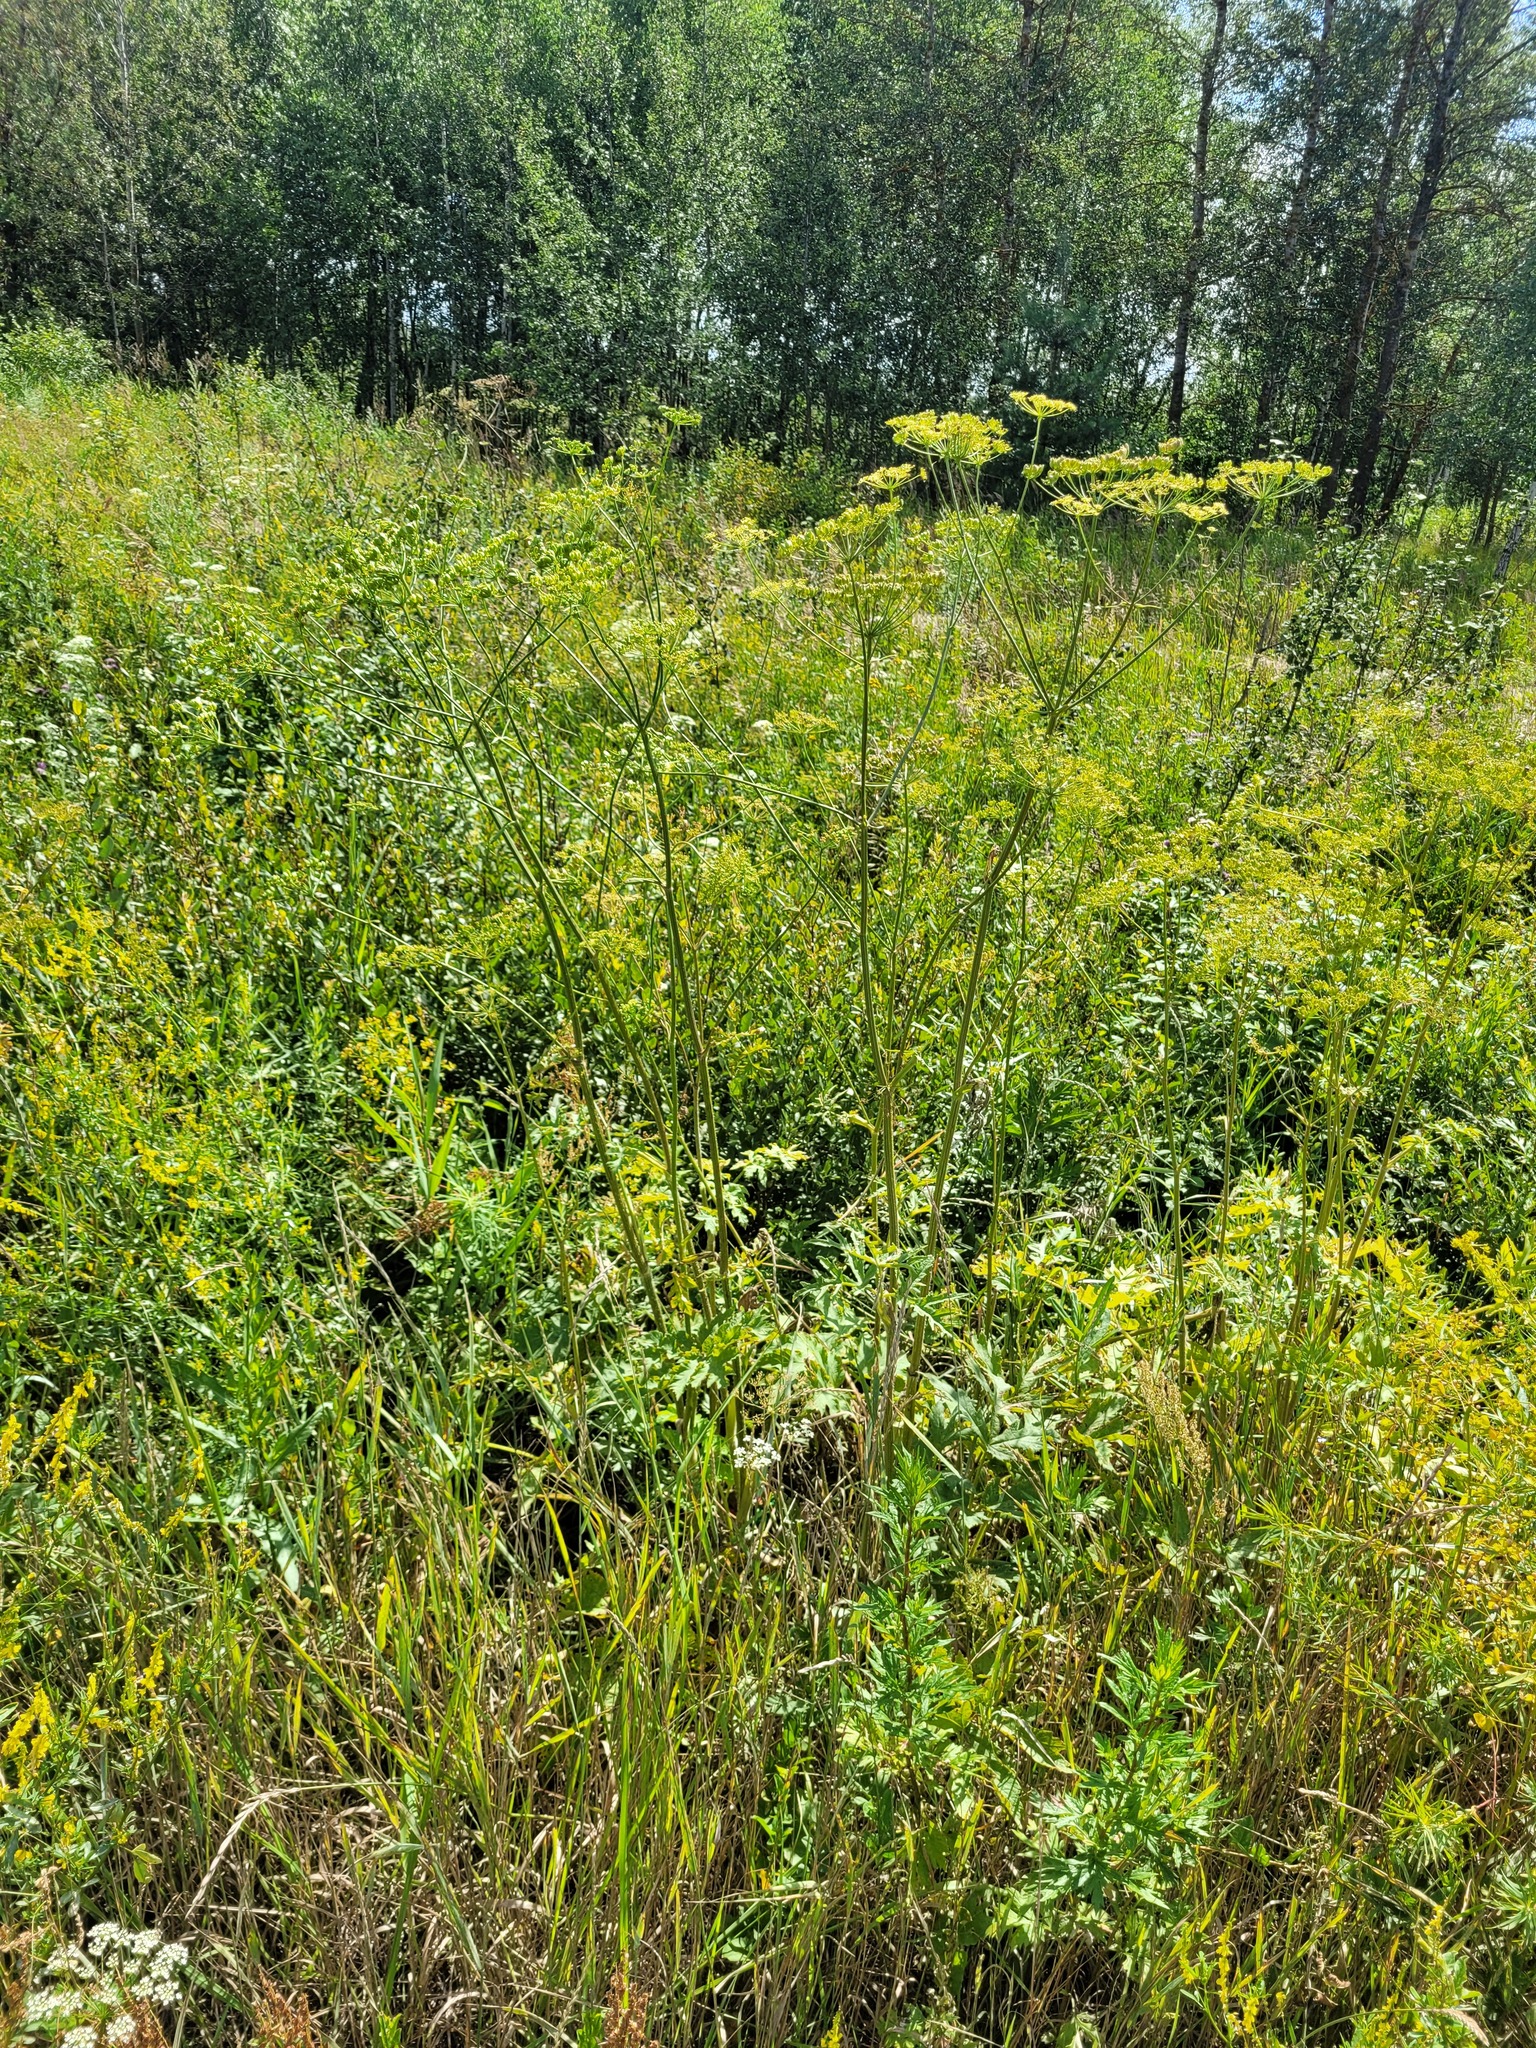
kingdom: Plantae
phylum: Tracheophyta
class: Magnoliopsida
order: Apiales
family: Apiaceae
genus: Heracleum
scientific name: Heracleum sphondylium
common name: Hogweed
